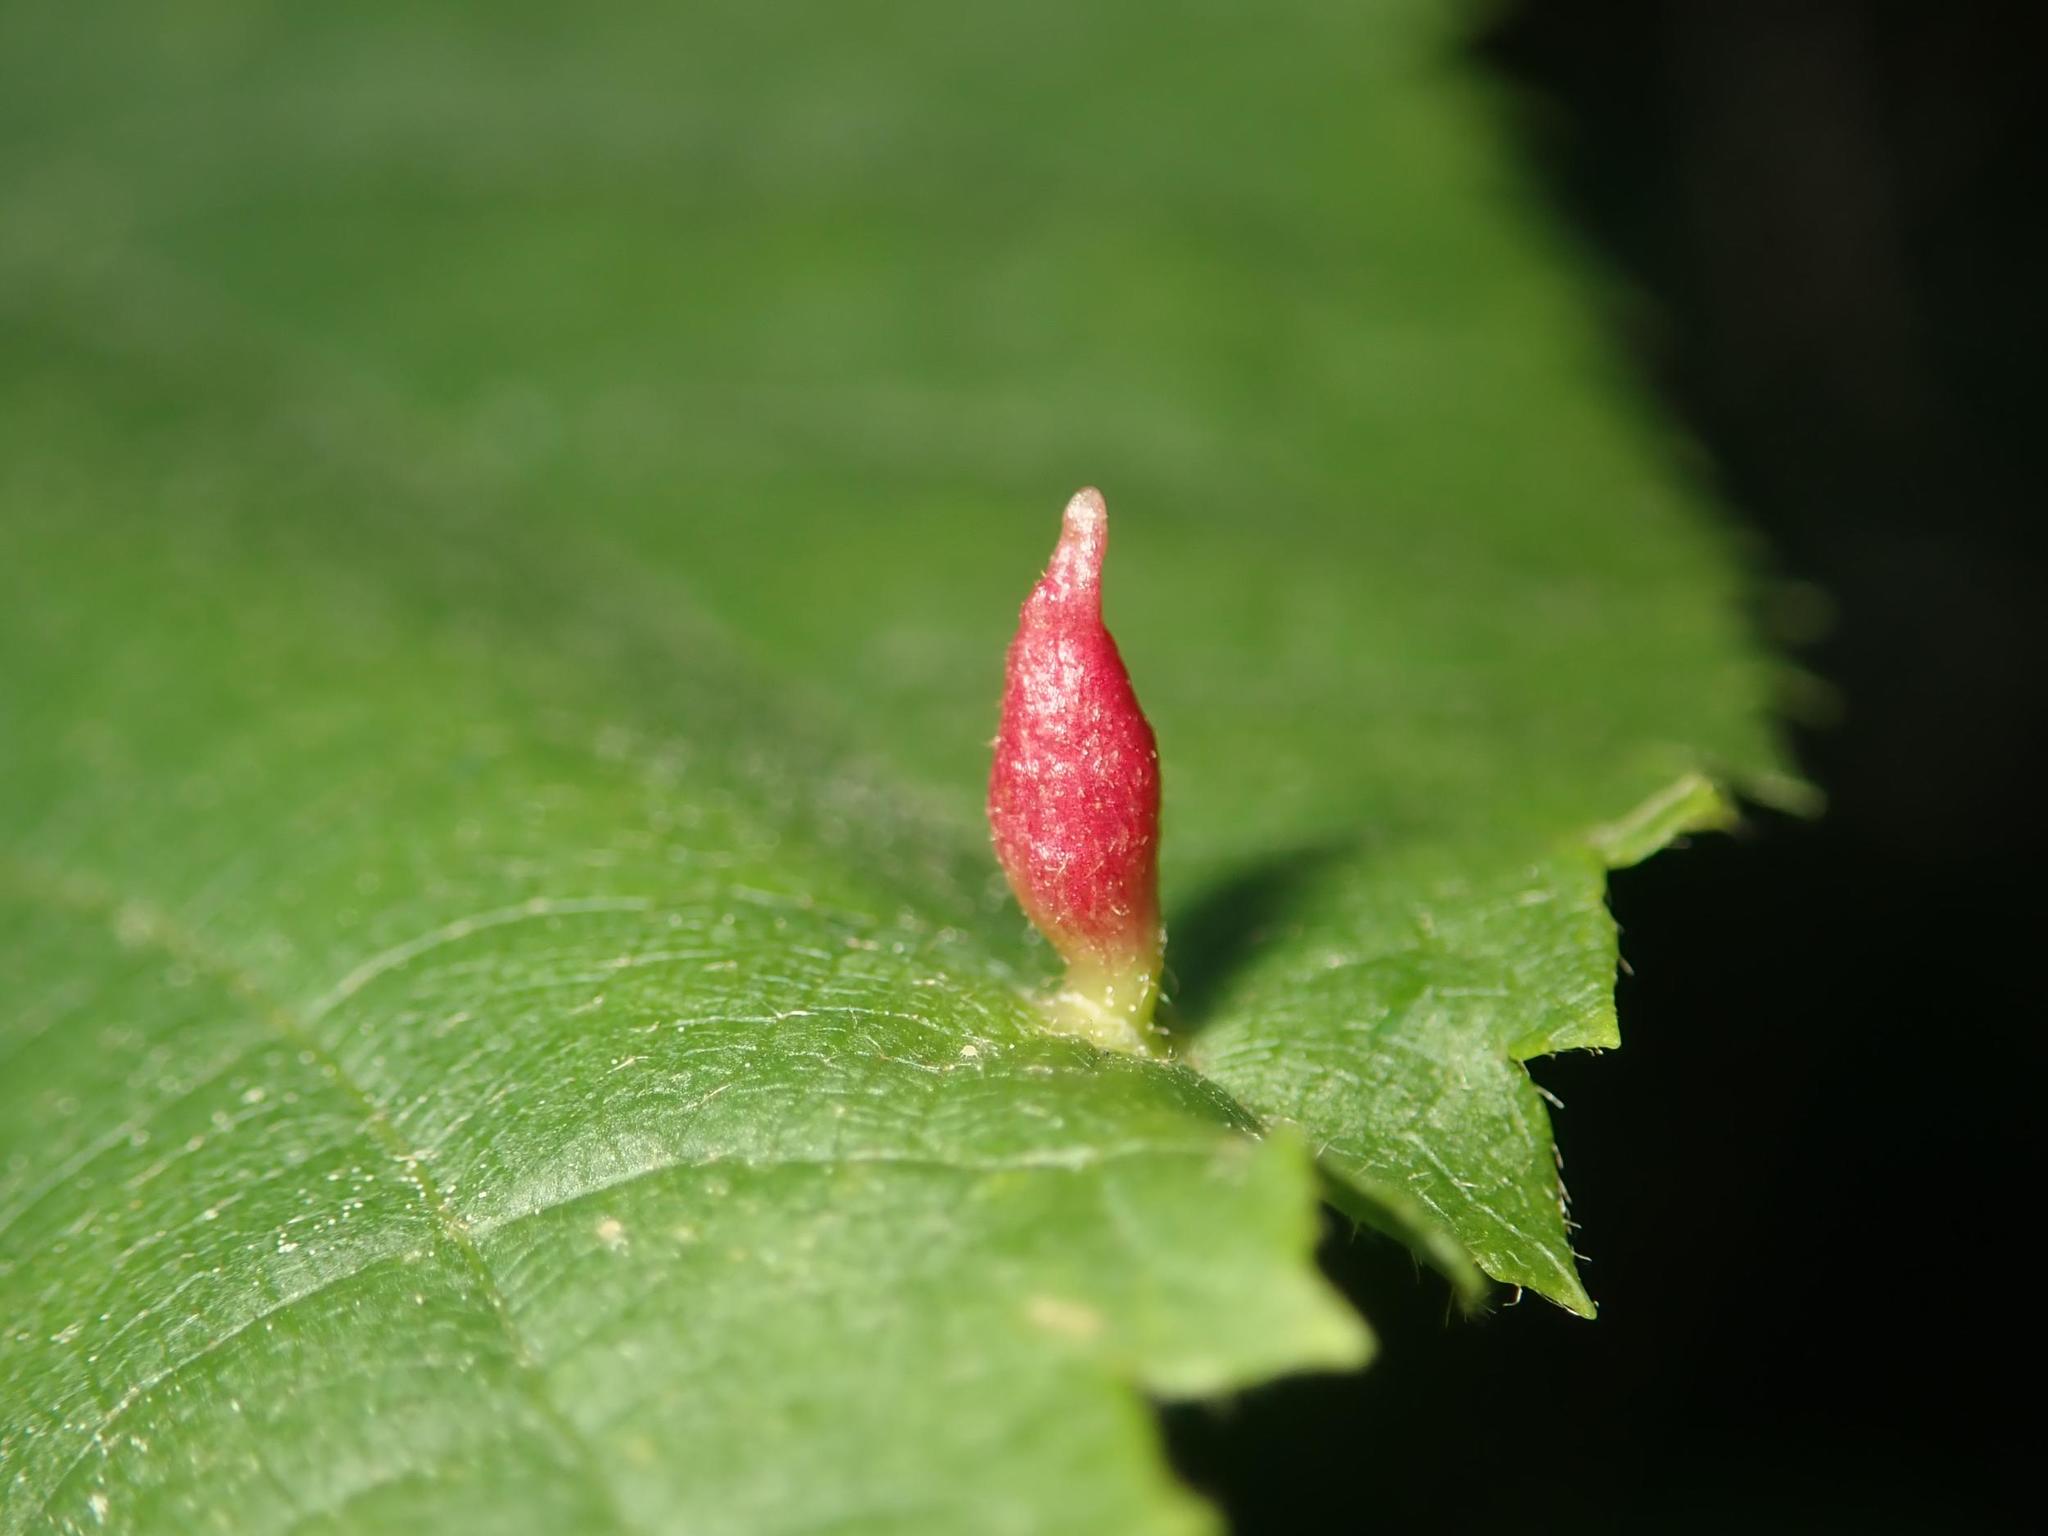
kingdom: Animalia
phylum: Arthropoda
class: Arachnida
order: Trombidiformes
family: Eriophyidae
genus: Eriophyes
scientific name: Eriophyes tiliae
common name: Red nail gall mite
